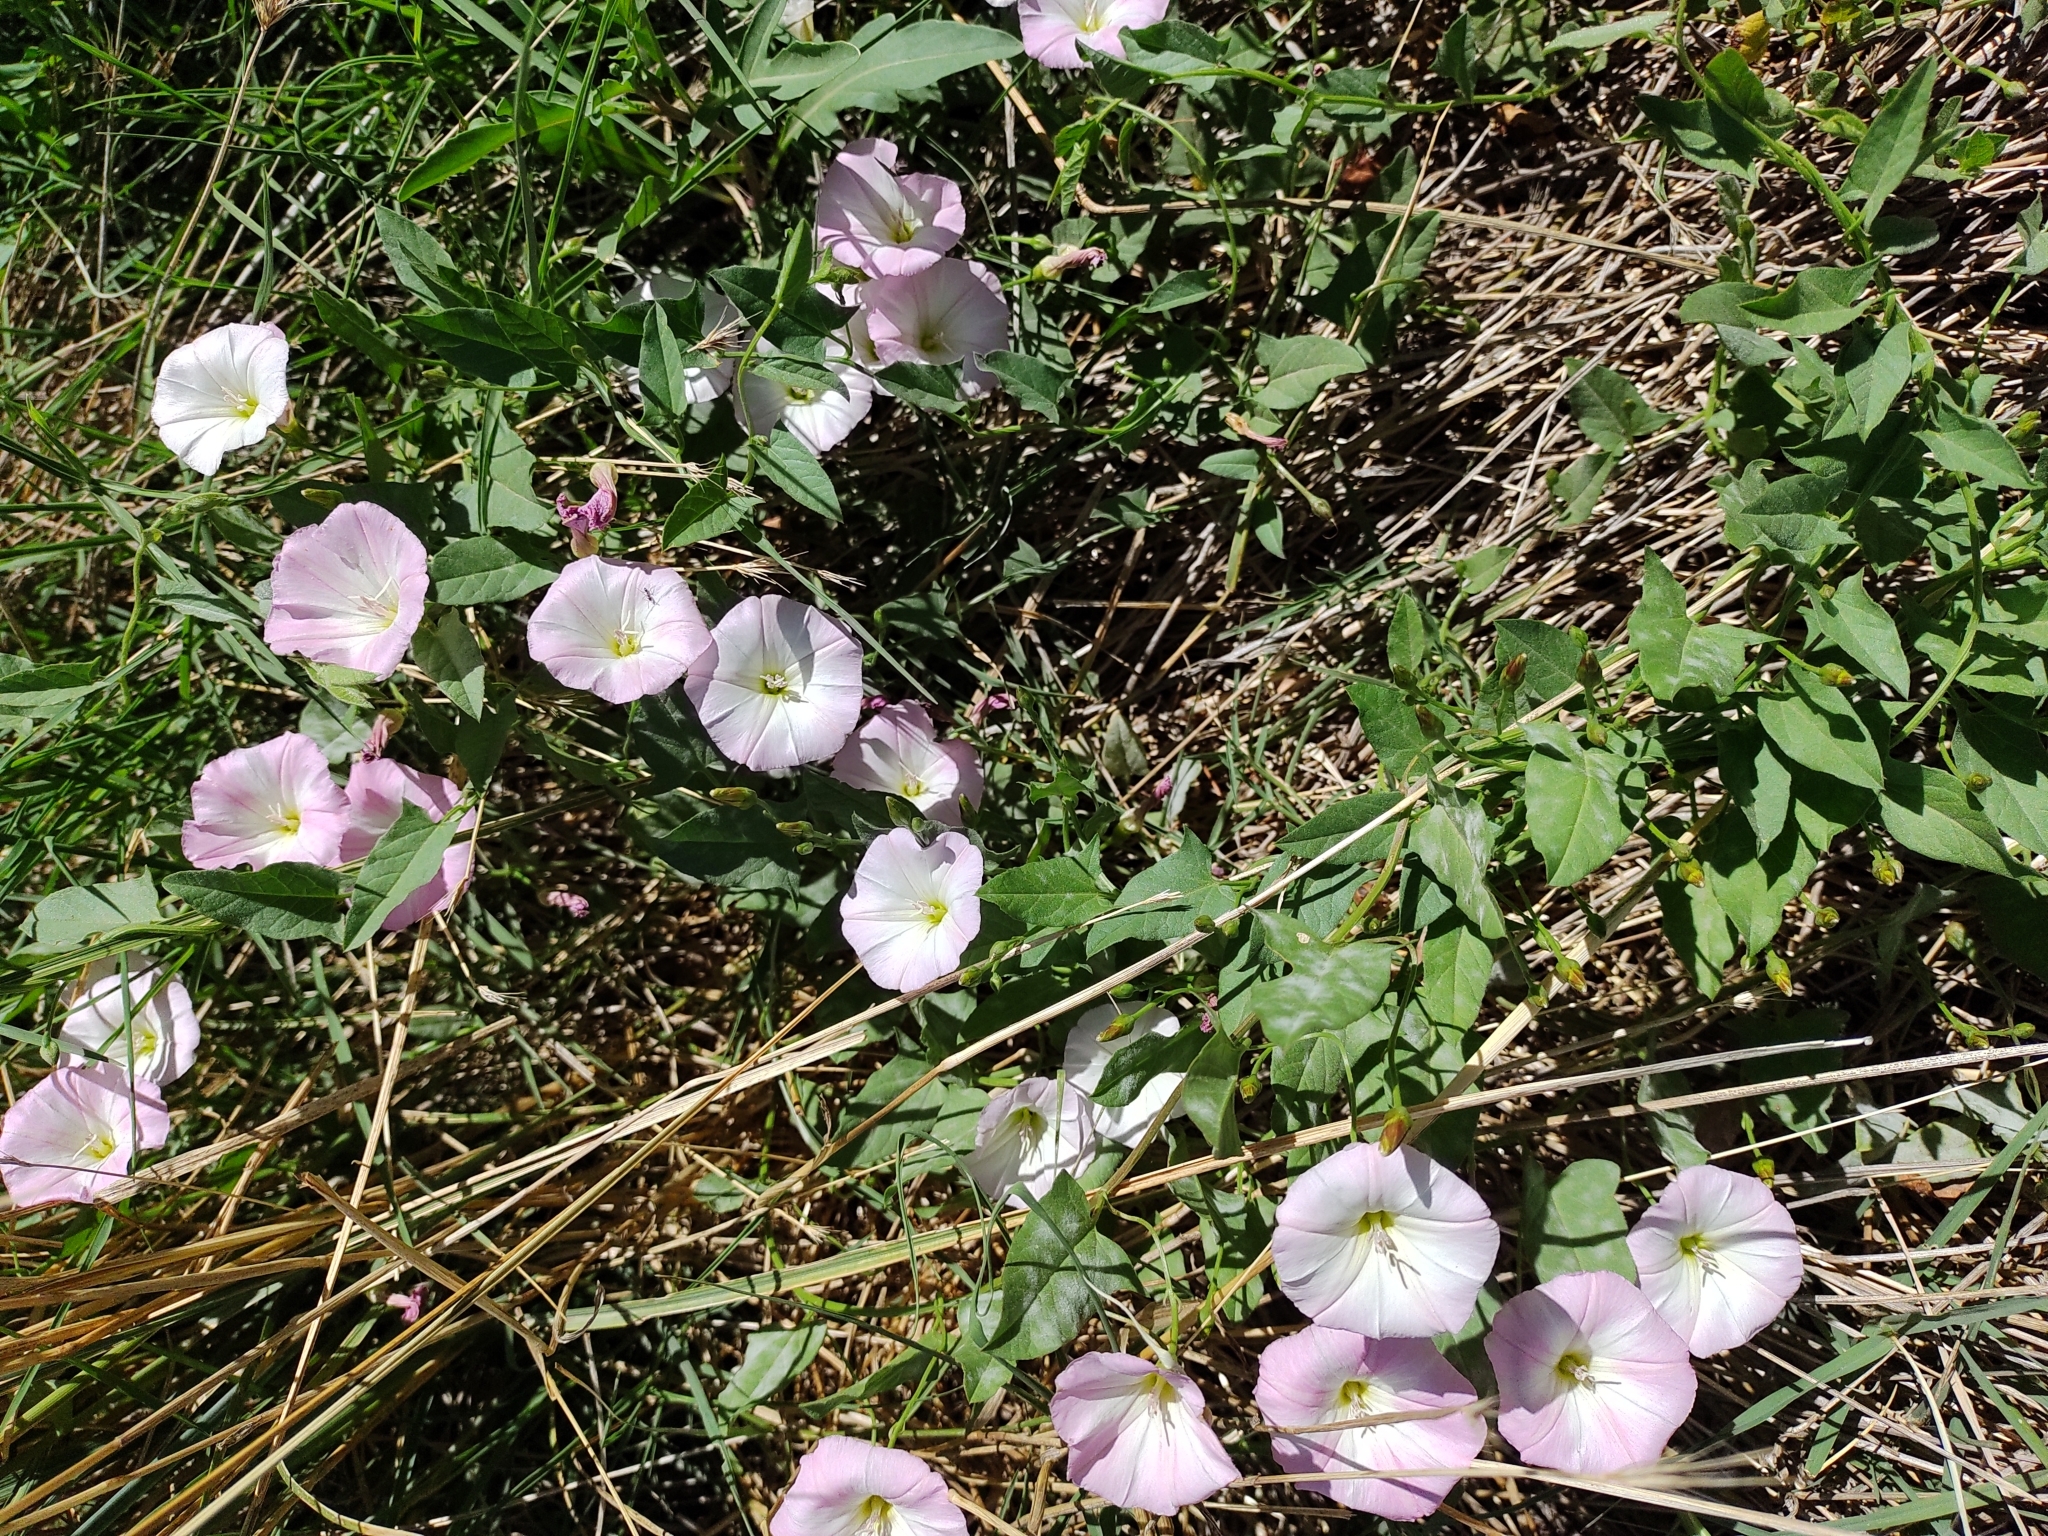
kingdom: Plantae
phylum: Tracheophyta
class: Magnoliopsida
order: Solanales
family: Convolvulaceae
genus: Convolvulus
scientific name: Convolvulus arvensis
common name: Field bindweed
